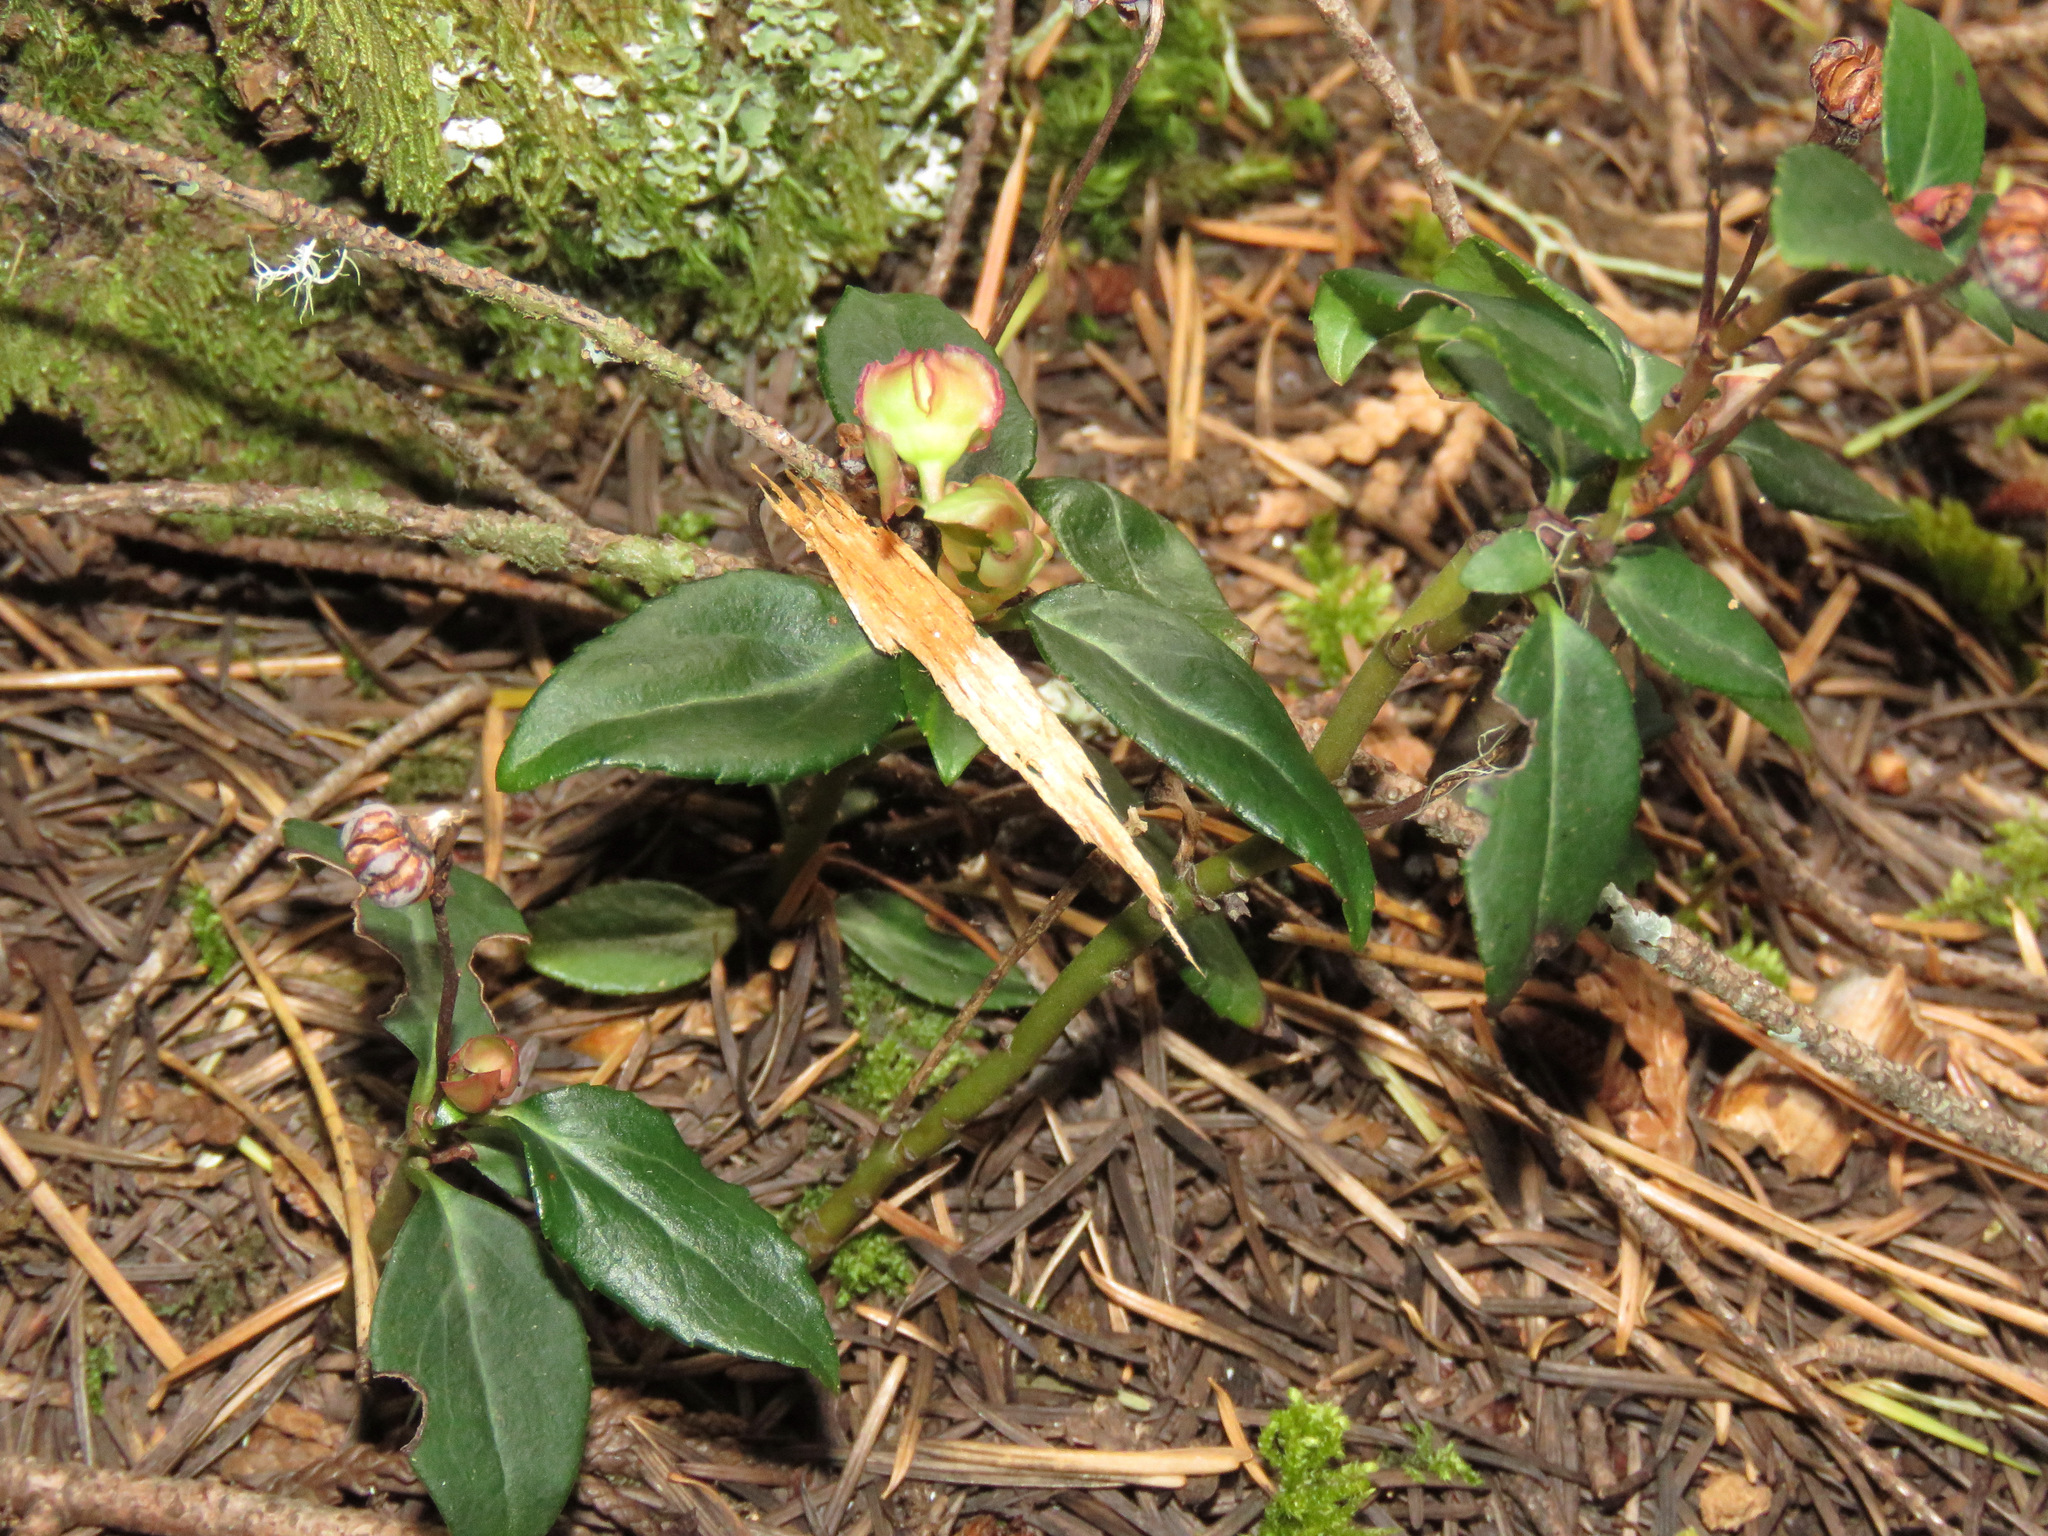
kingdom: Plantae
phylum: Tracheophyta
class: Magnoliopsida
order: Ericales
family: Ericaceae
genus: Chimaphila
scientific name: Chimaphila menziesii
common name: Menzies' pipsissewa
